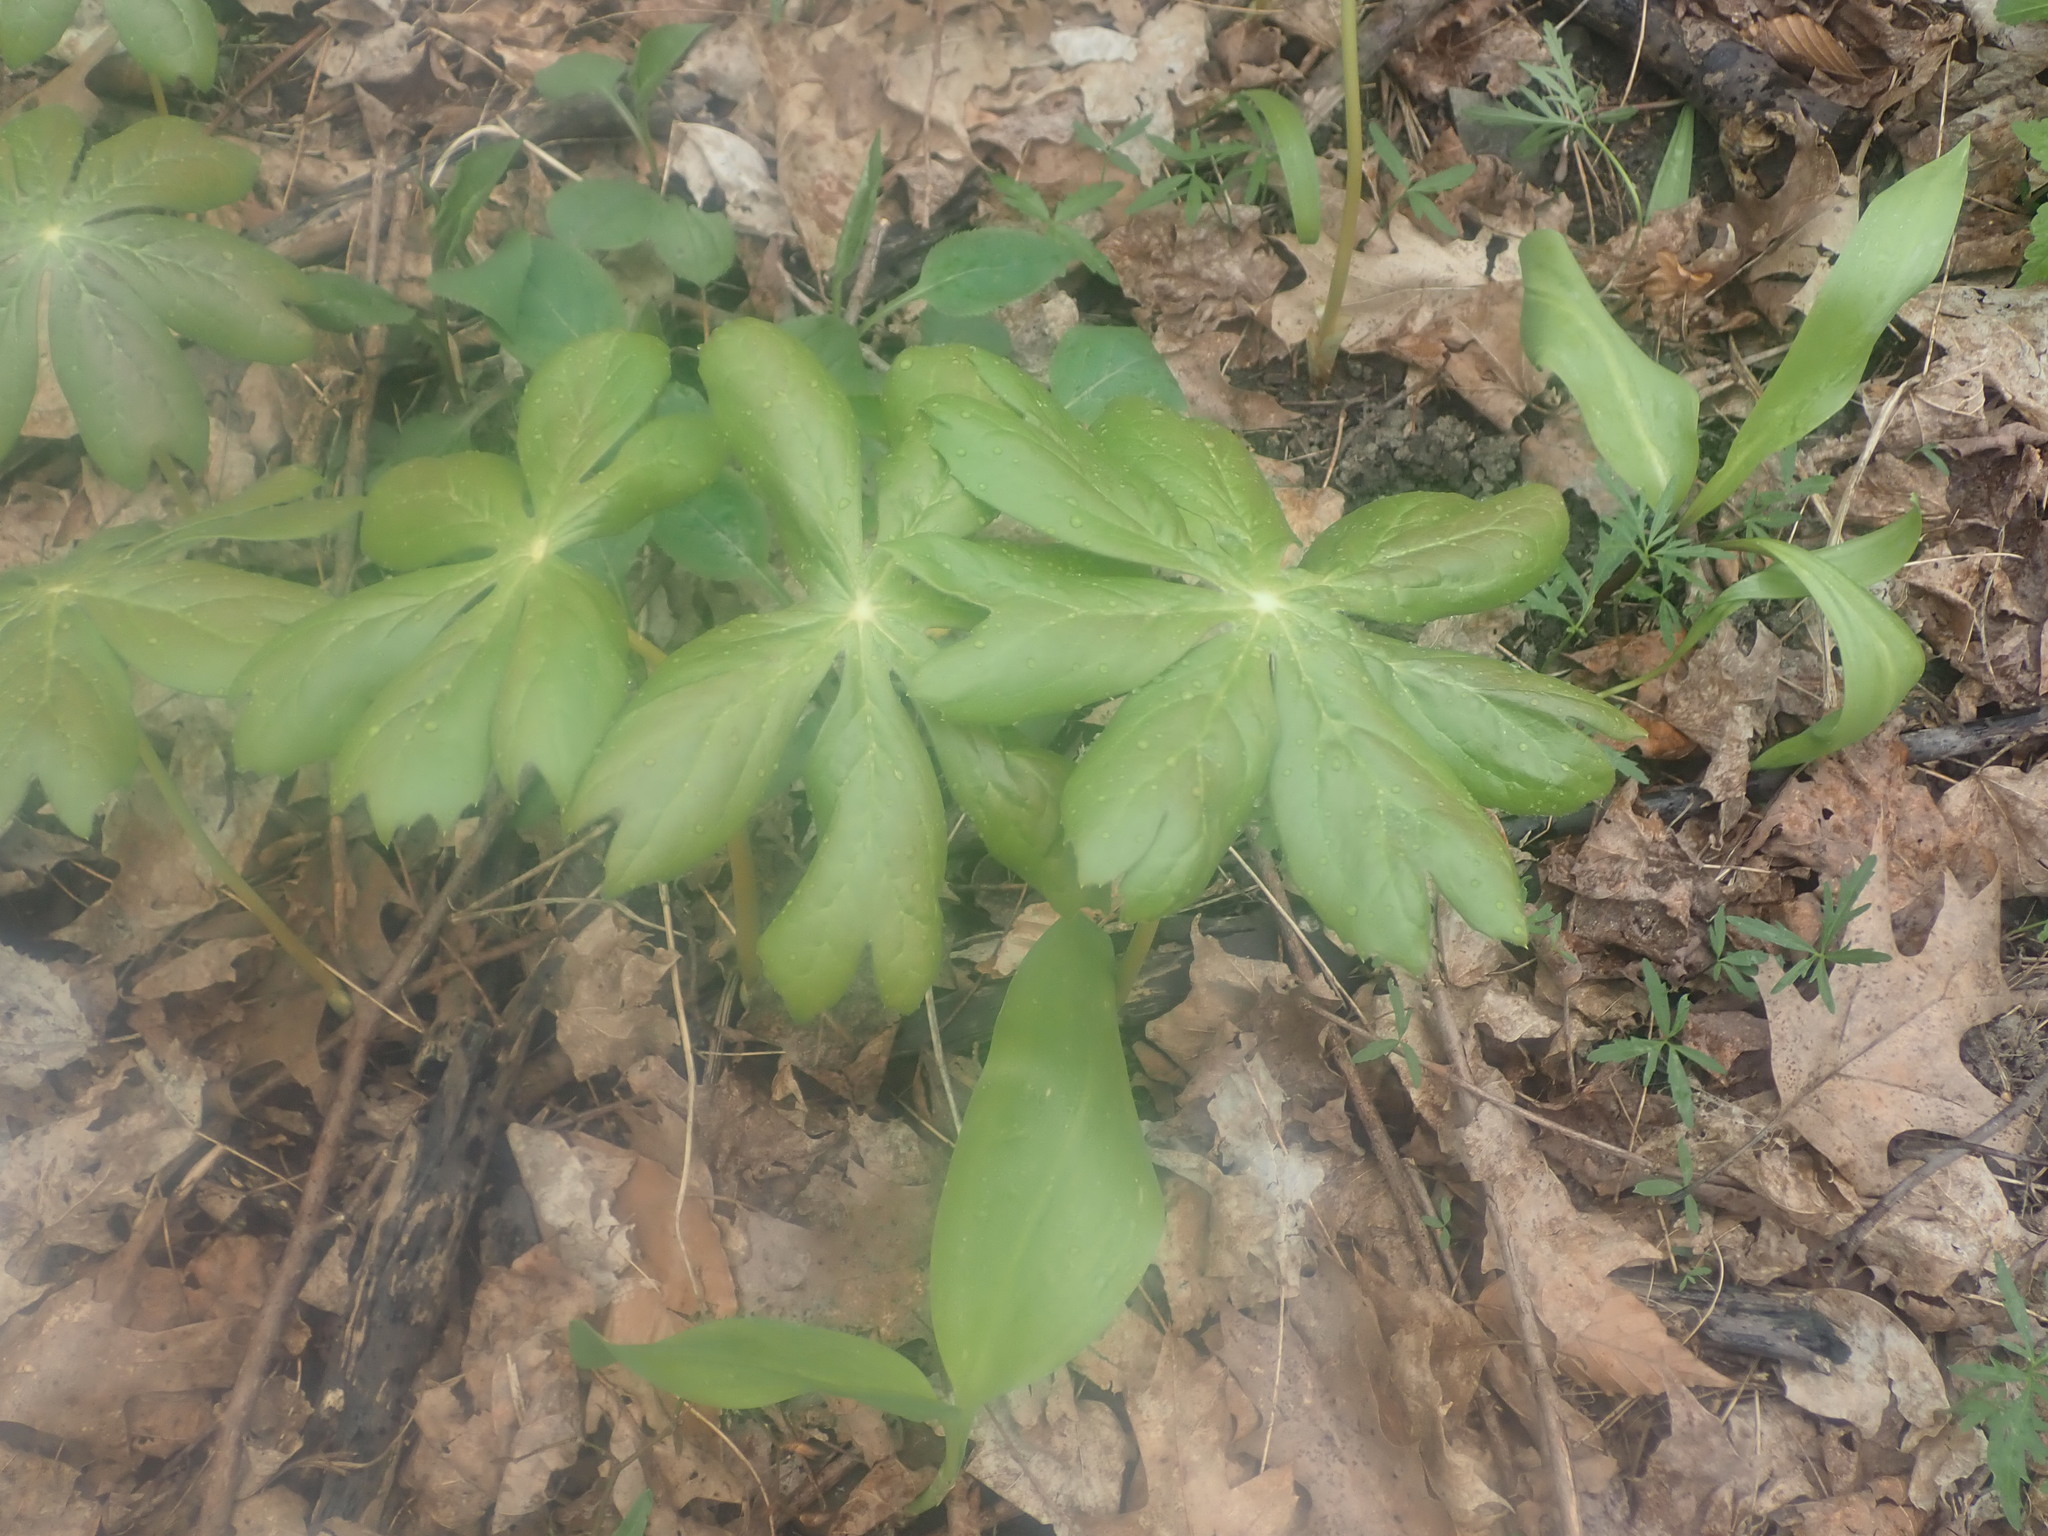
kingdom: Plantae
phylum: Tracheophyta
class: Magnoliopsida
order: Ranunculales
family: Berberidaceae
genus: Podophyllum
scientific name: Podophyllum peltatum
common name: Wild mandrake
